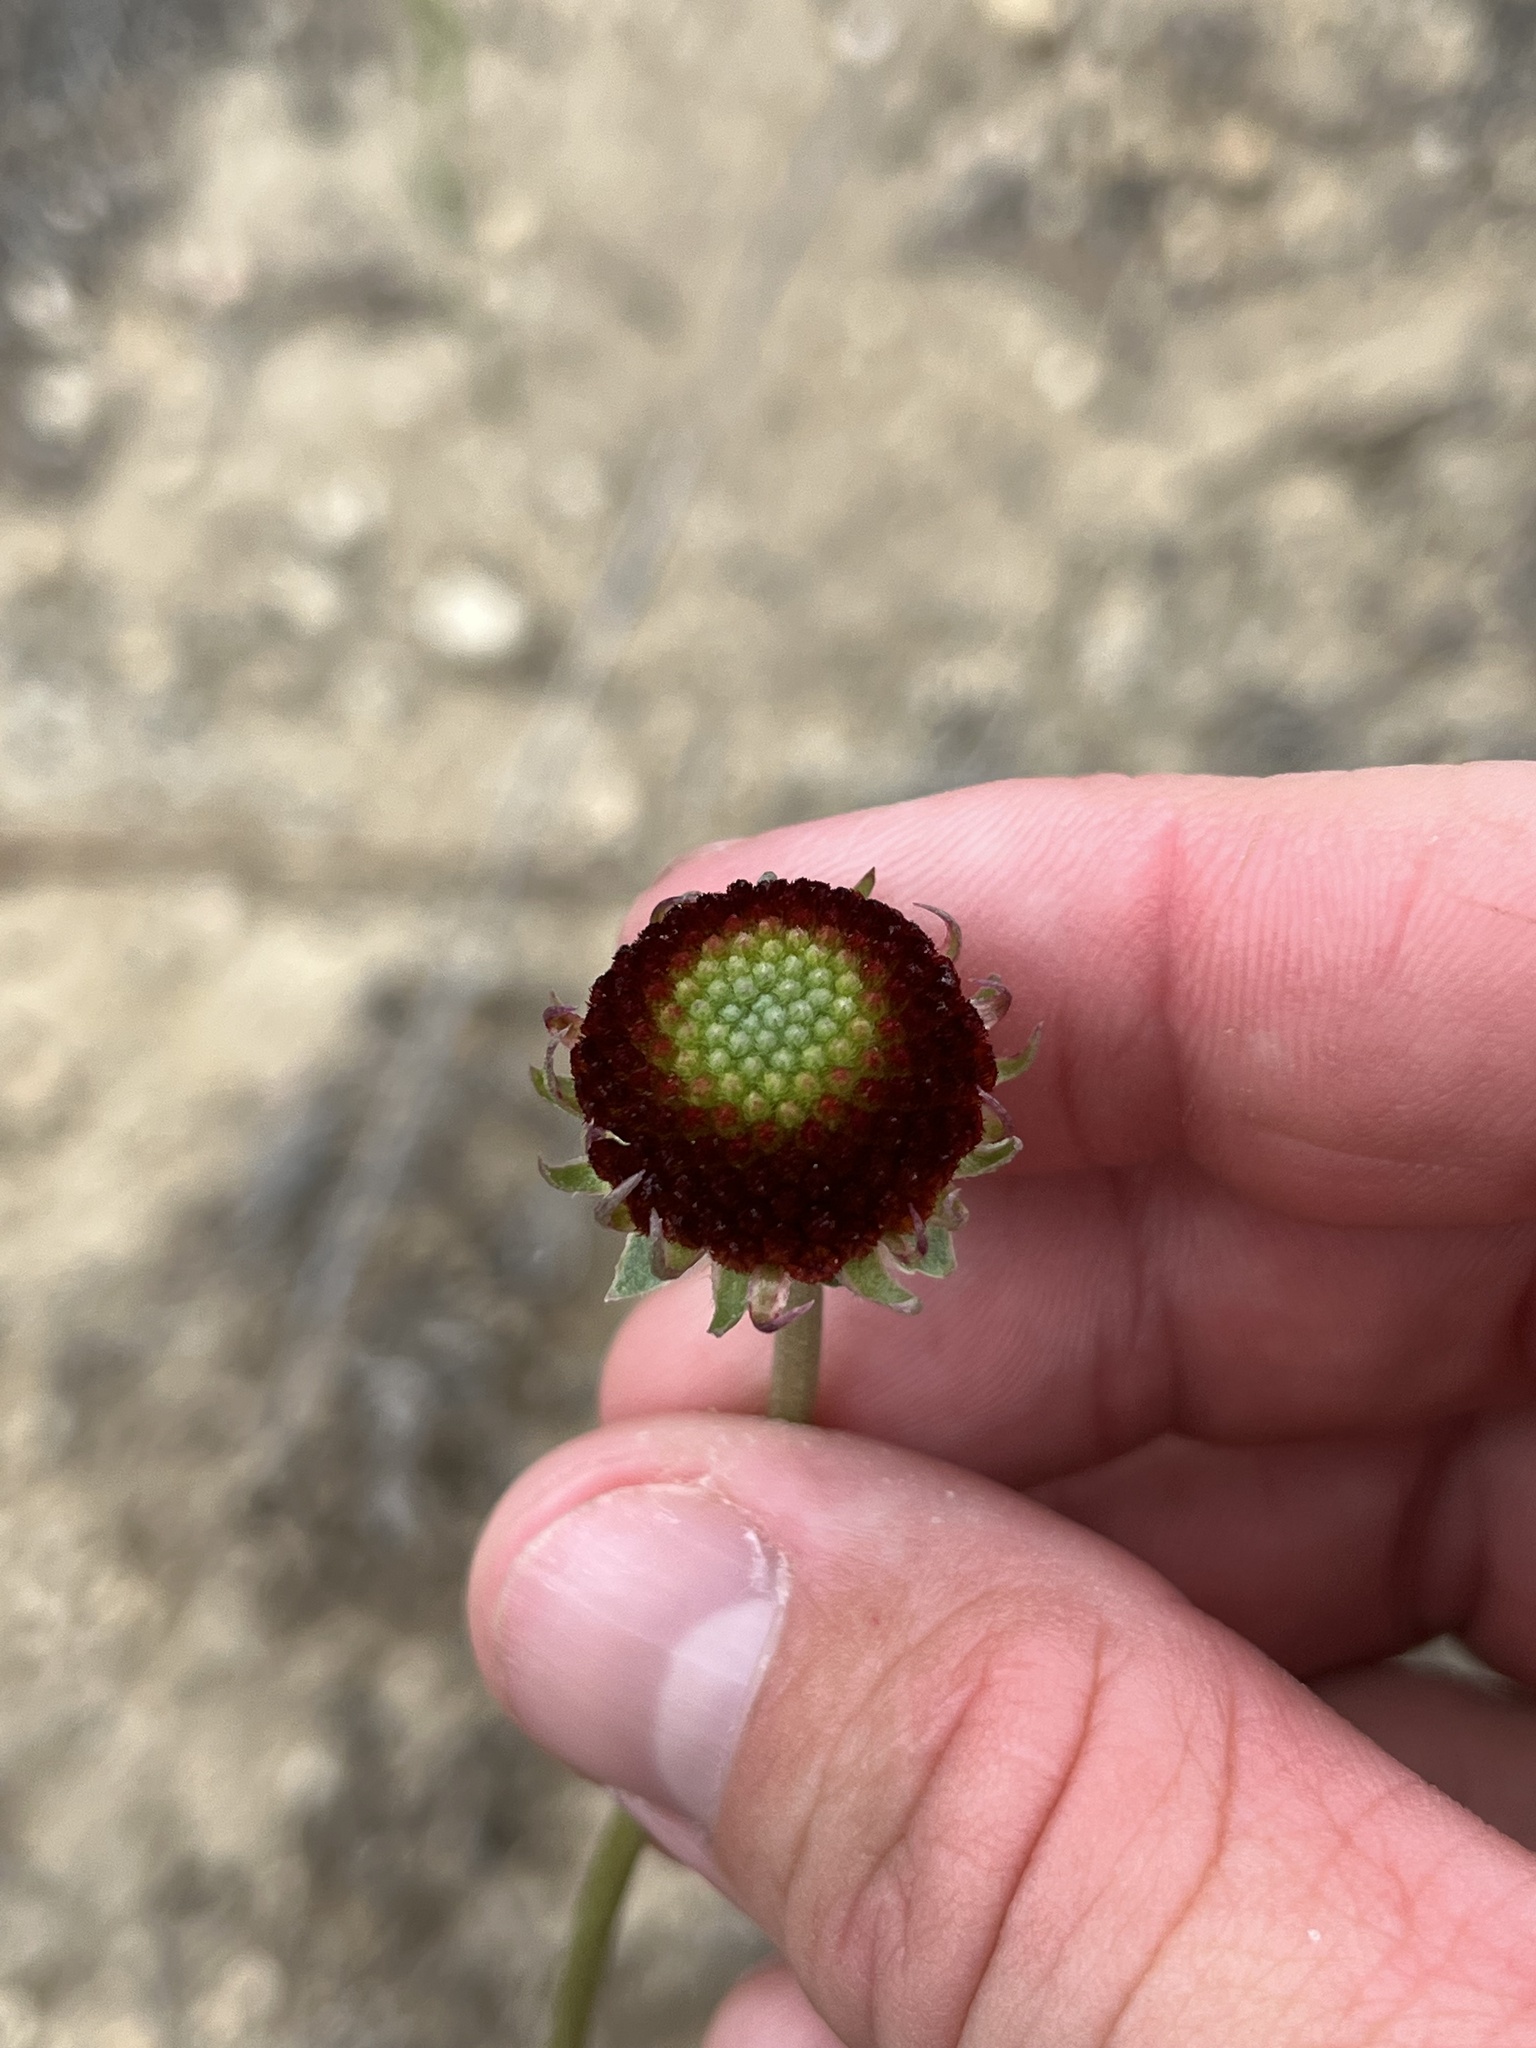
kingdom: Plantae
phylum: Tracheophyta
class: Magnoliopsida
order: Asterales
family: Asteraceae
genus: Gaillardia
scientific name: Gaillardia suavis
